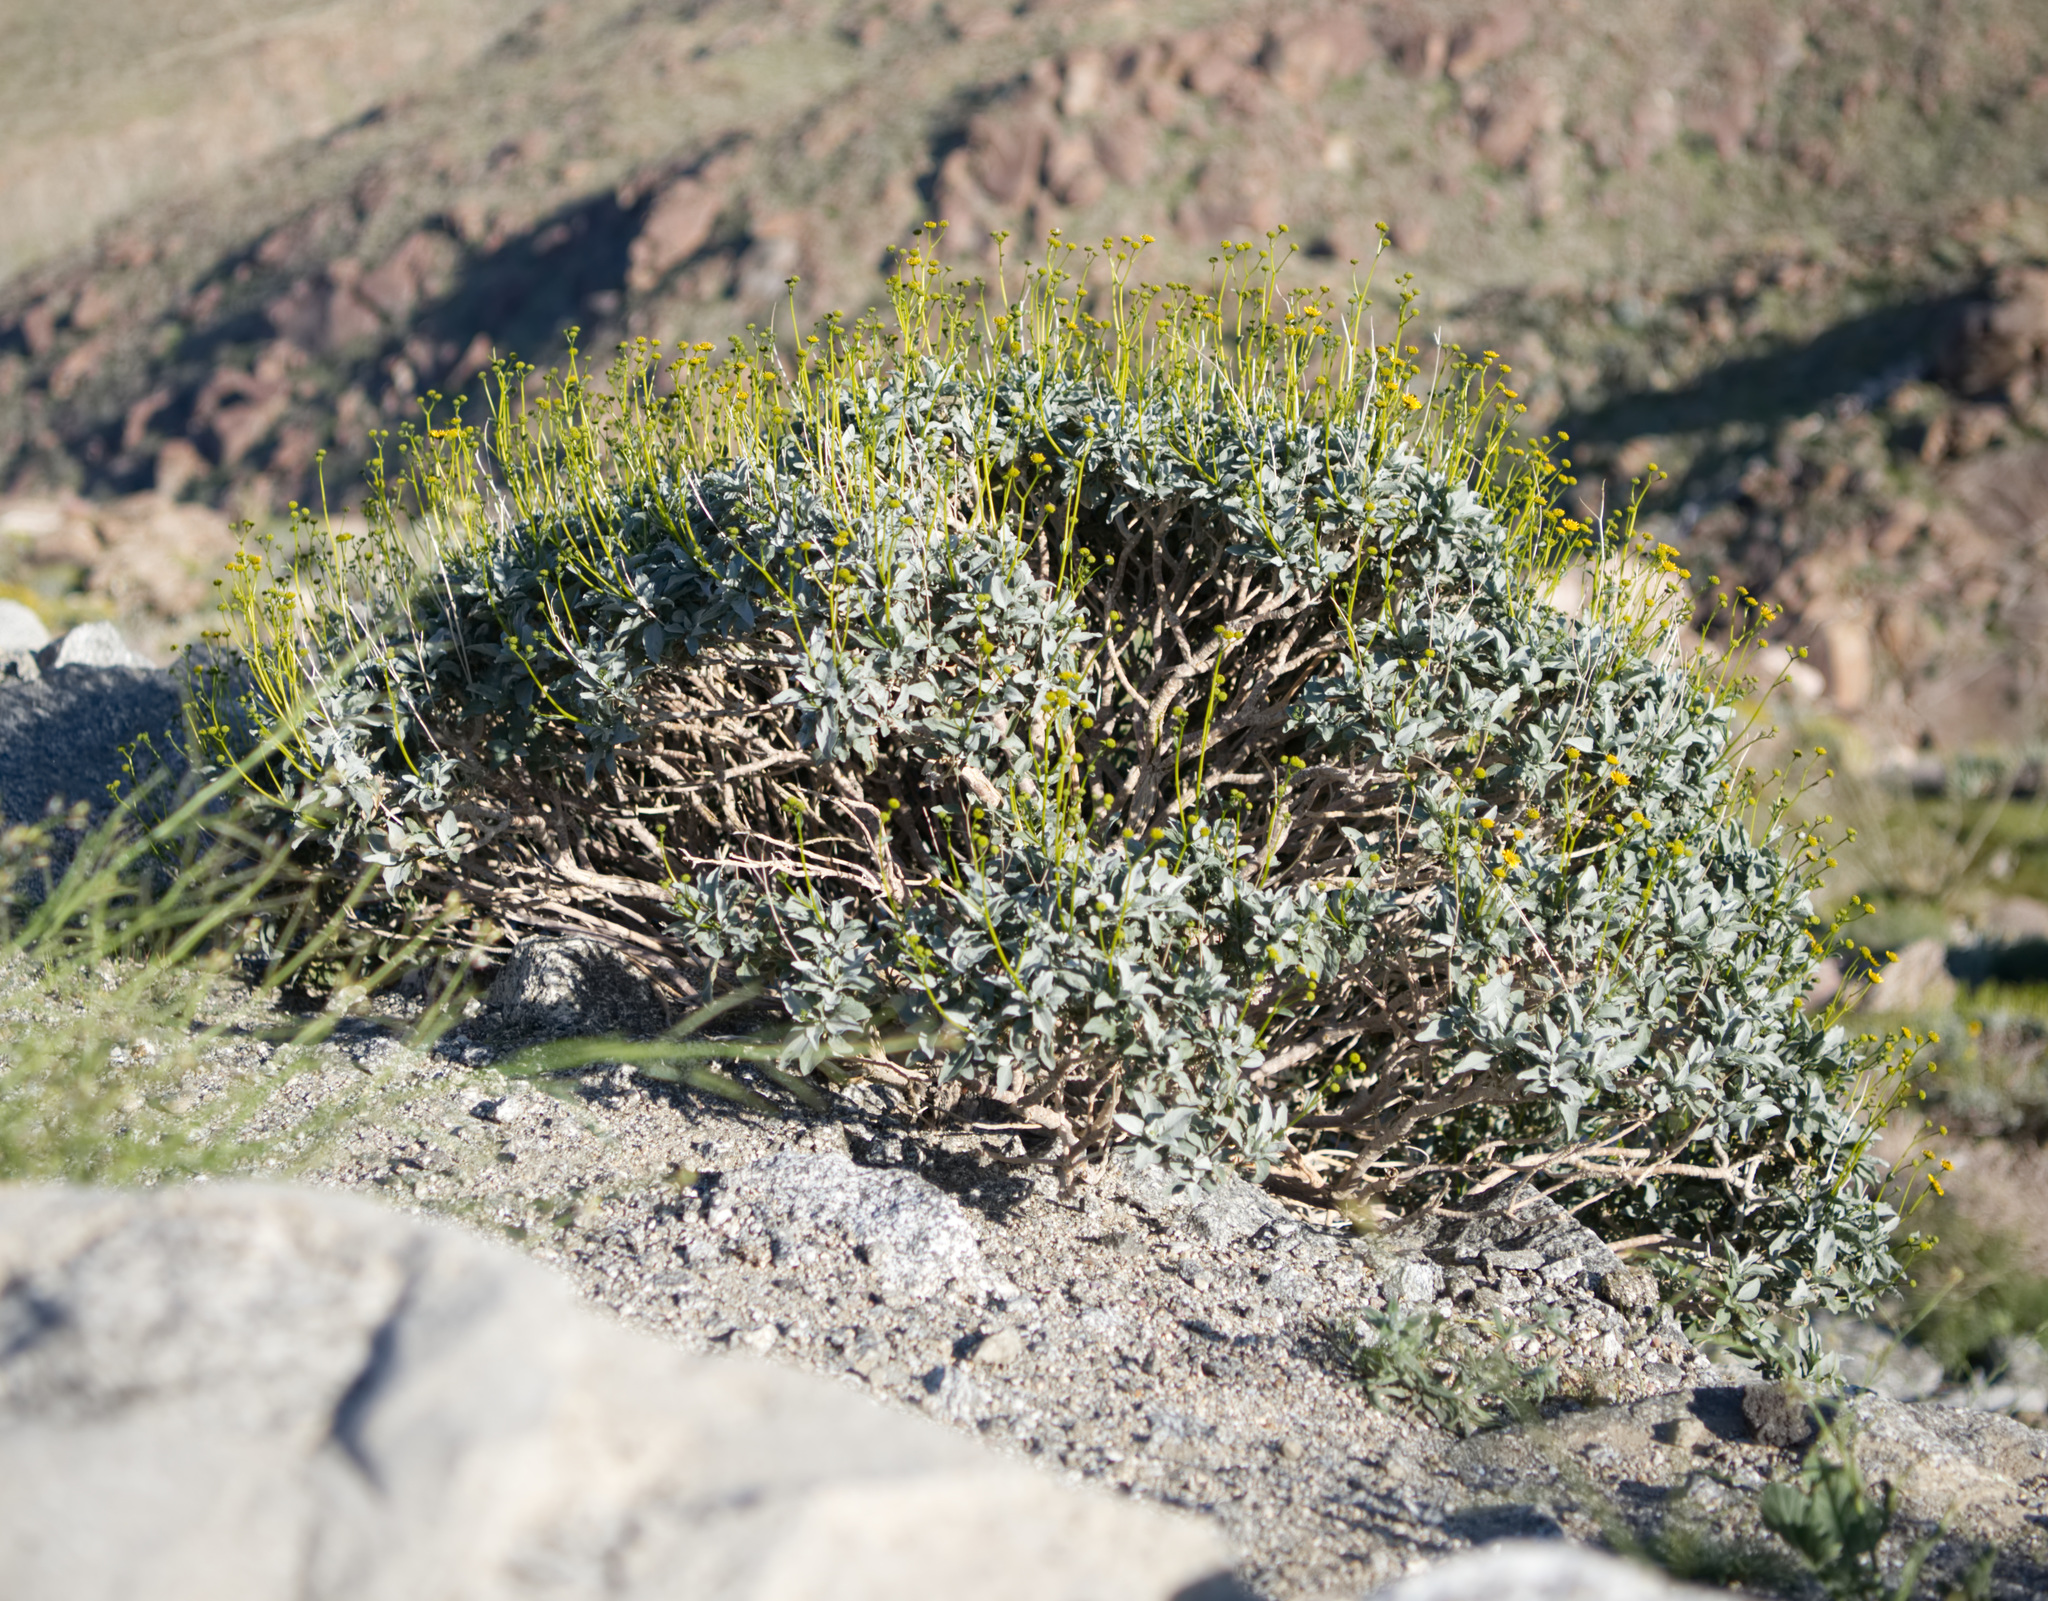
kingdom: Plantae
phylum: Tracheophyta
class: Magnoliopsida
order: Asterales
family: Asteraceae
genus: Encelia
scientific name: Encelia farinosa
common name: Brittlebush
